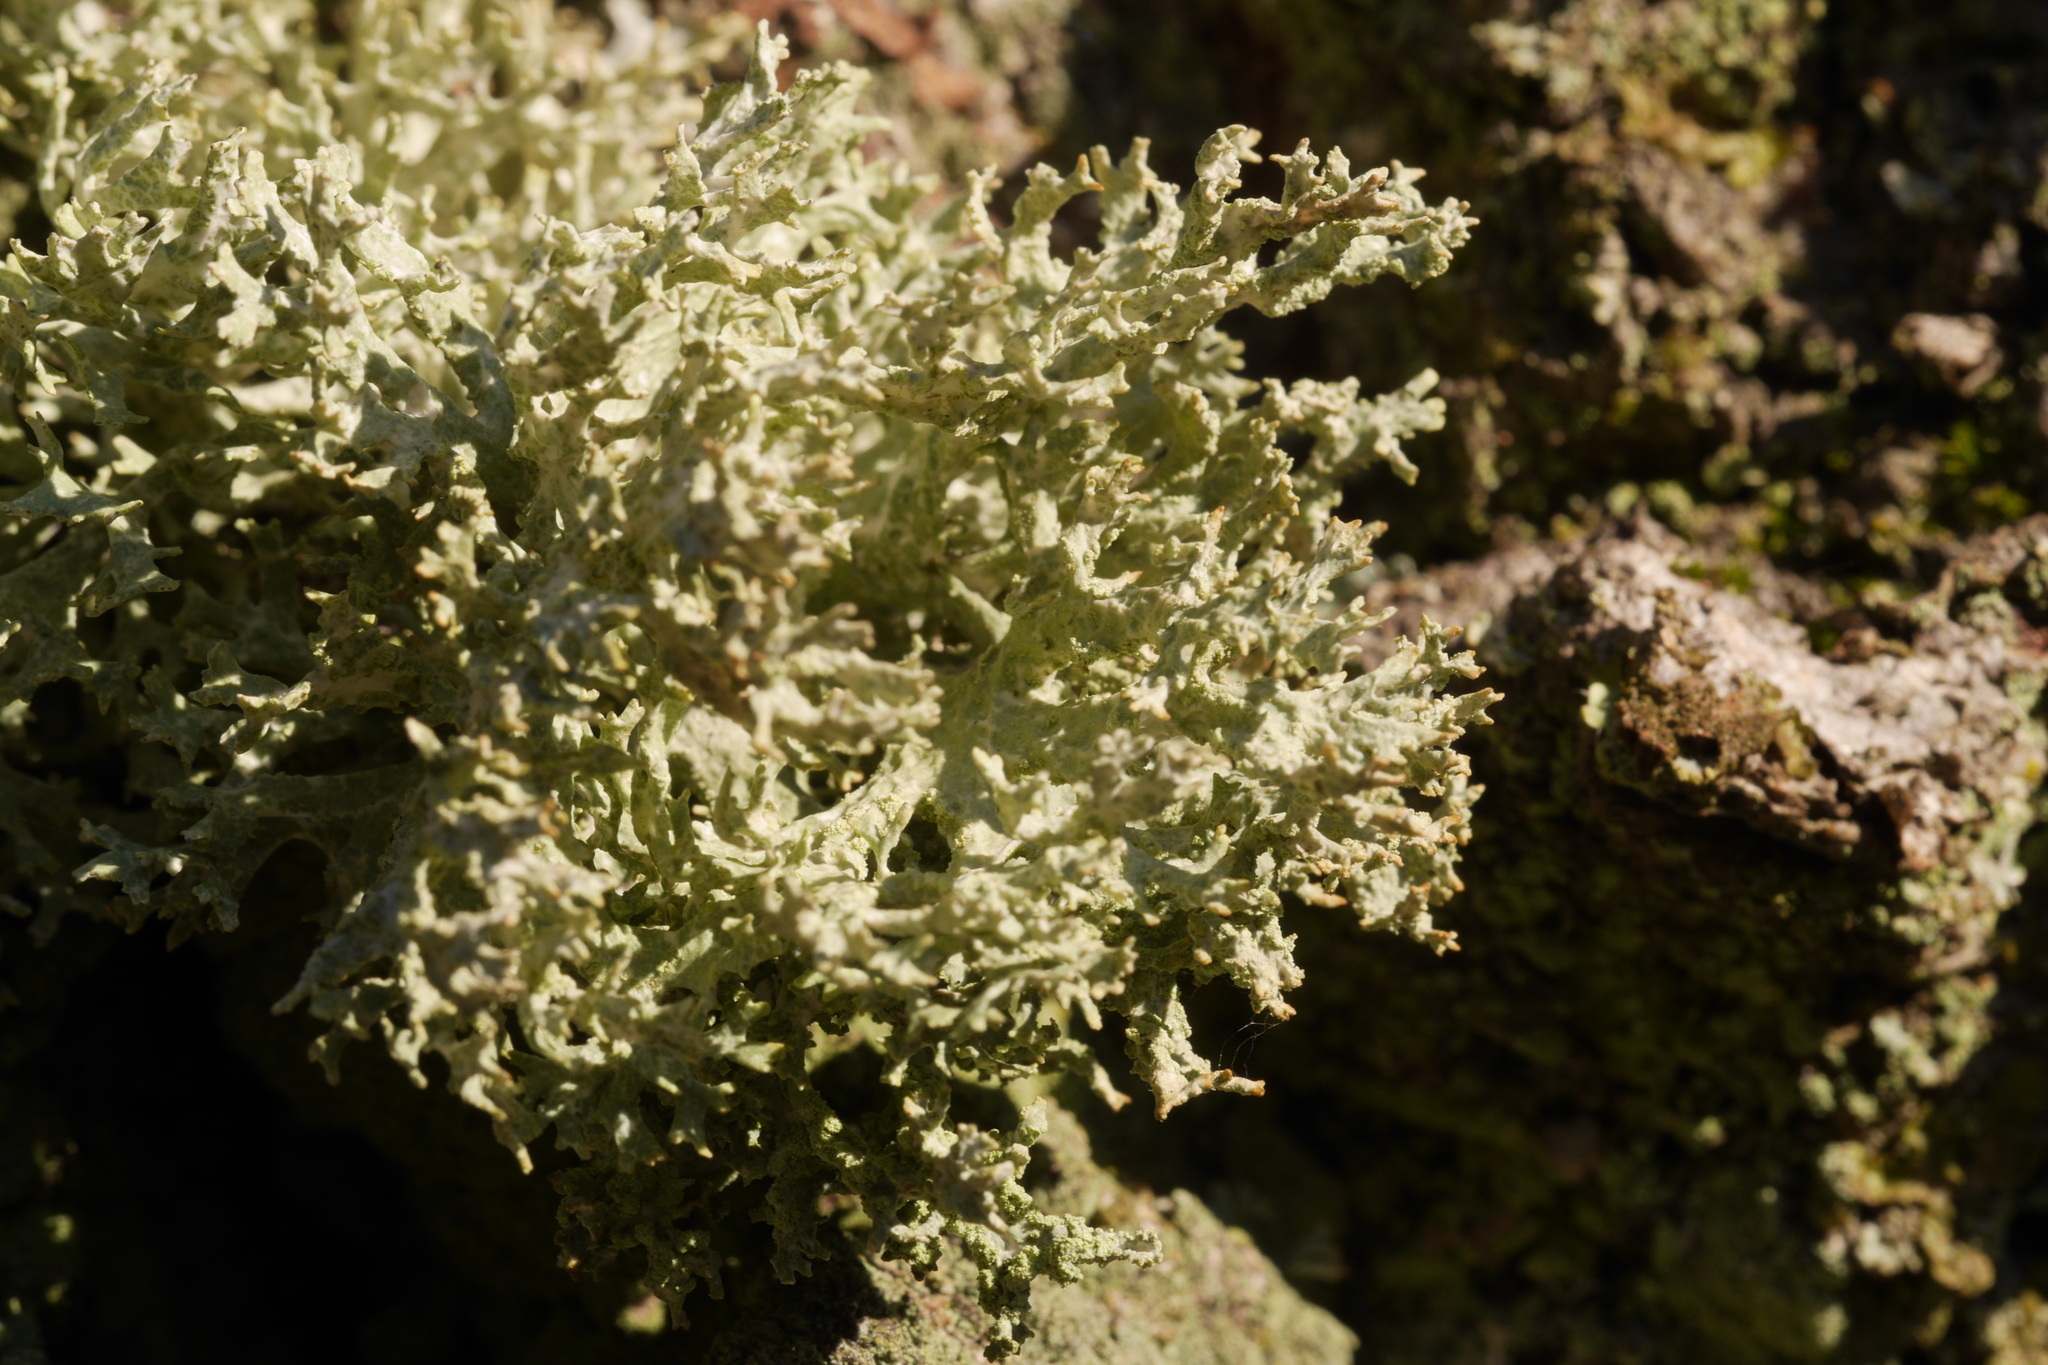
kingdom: Fungi
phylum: Ascomycota
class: Lecanoromycetes
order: Lecanorales
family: Parmeliaceae
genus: Evernia
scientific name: Evernia prunastri
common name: Oak moss
